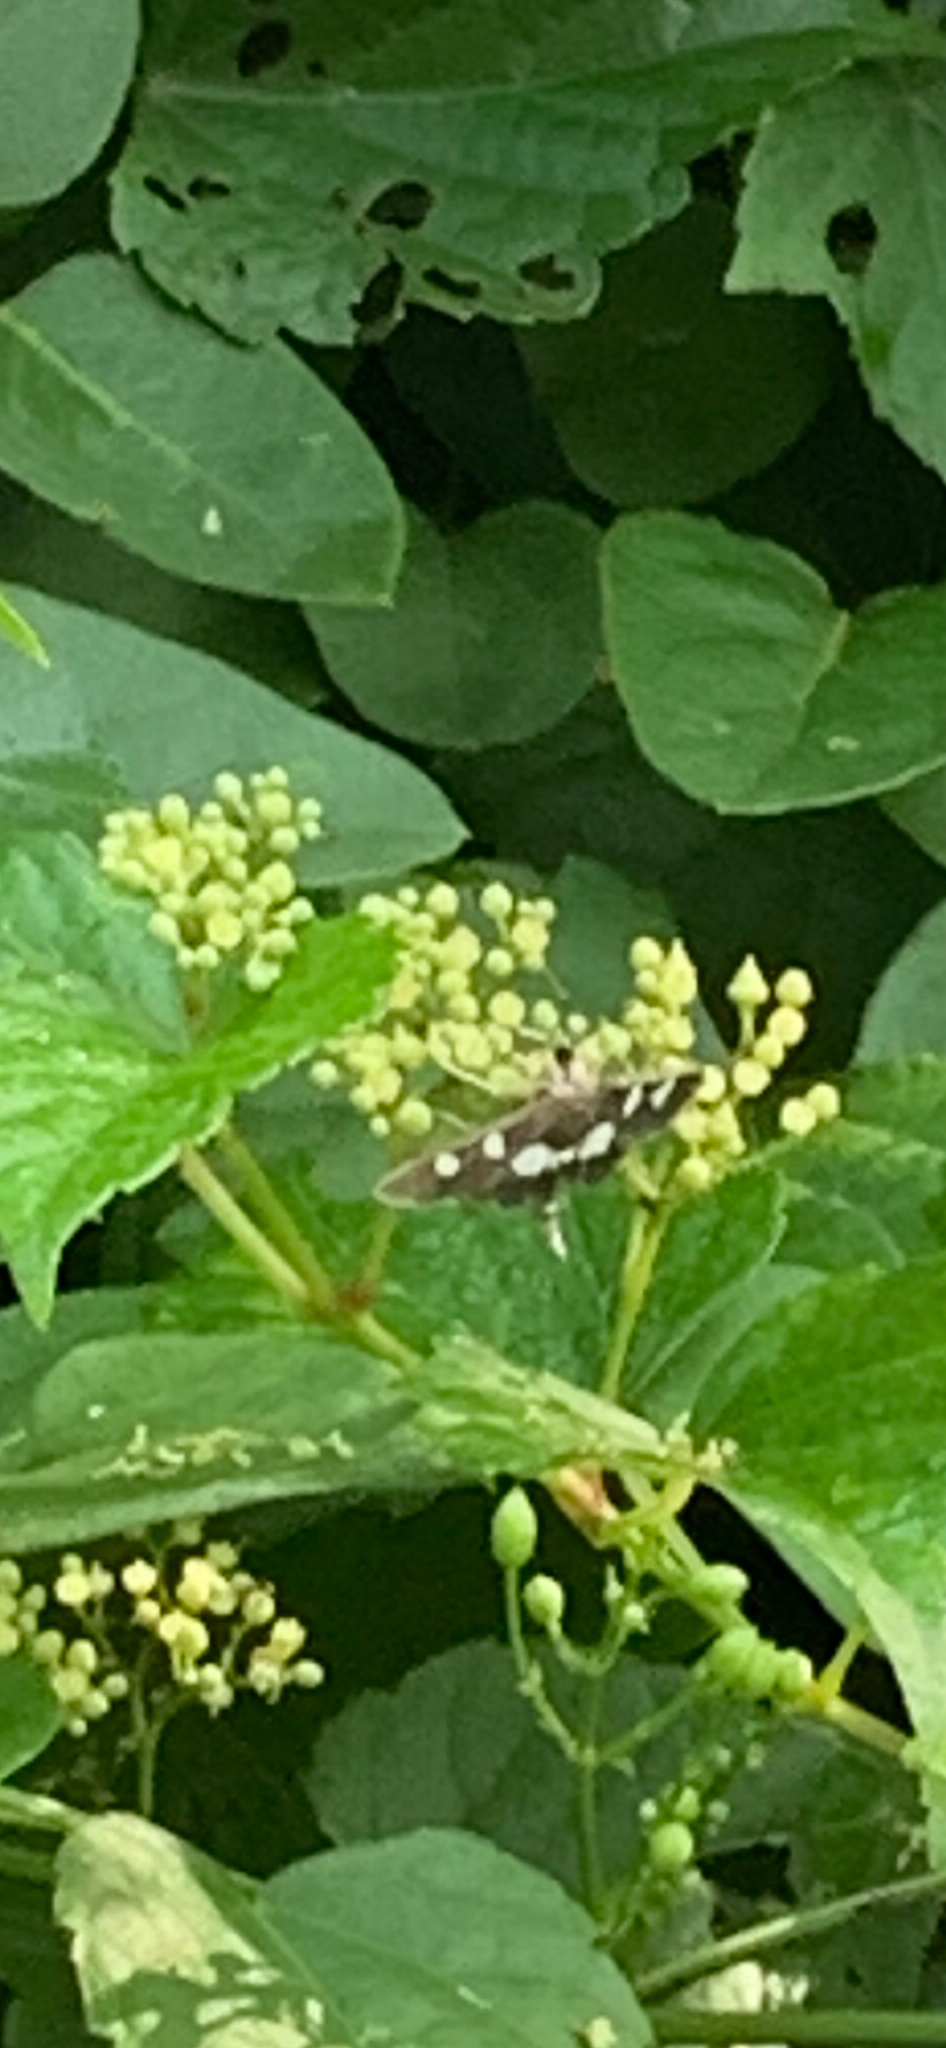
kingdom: Animalia
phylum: Arthropoda
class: Insecta
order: Lepidoptera
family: Crambidae
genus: Desmia
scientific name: Desmia
